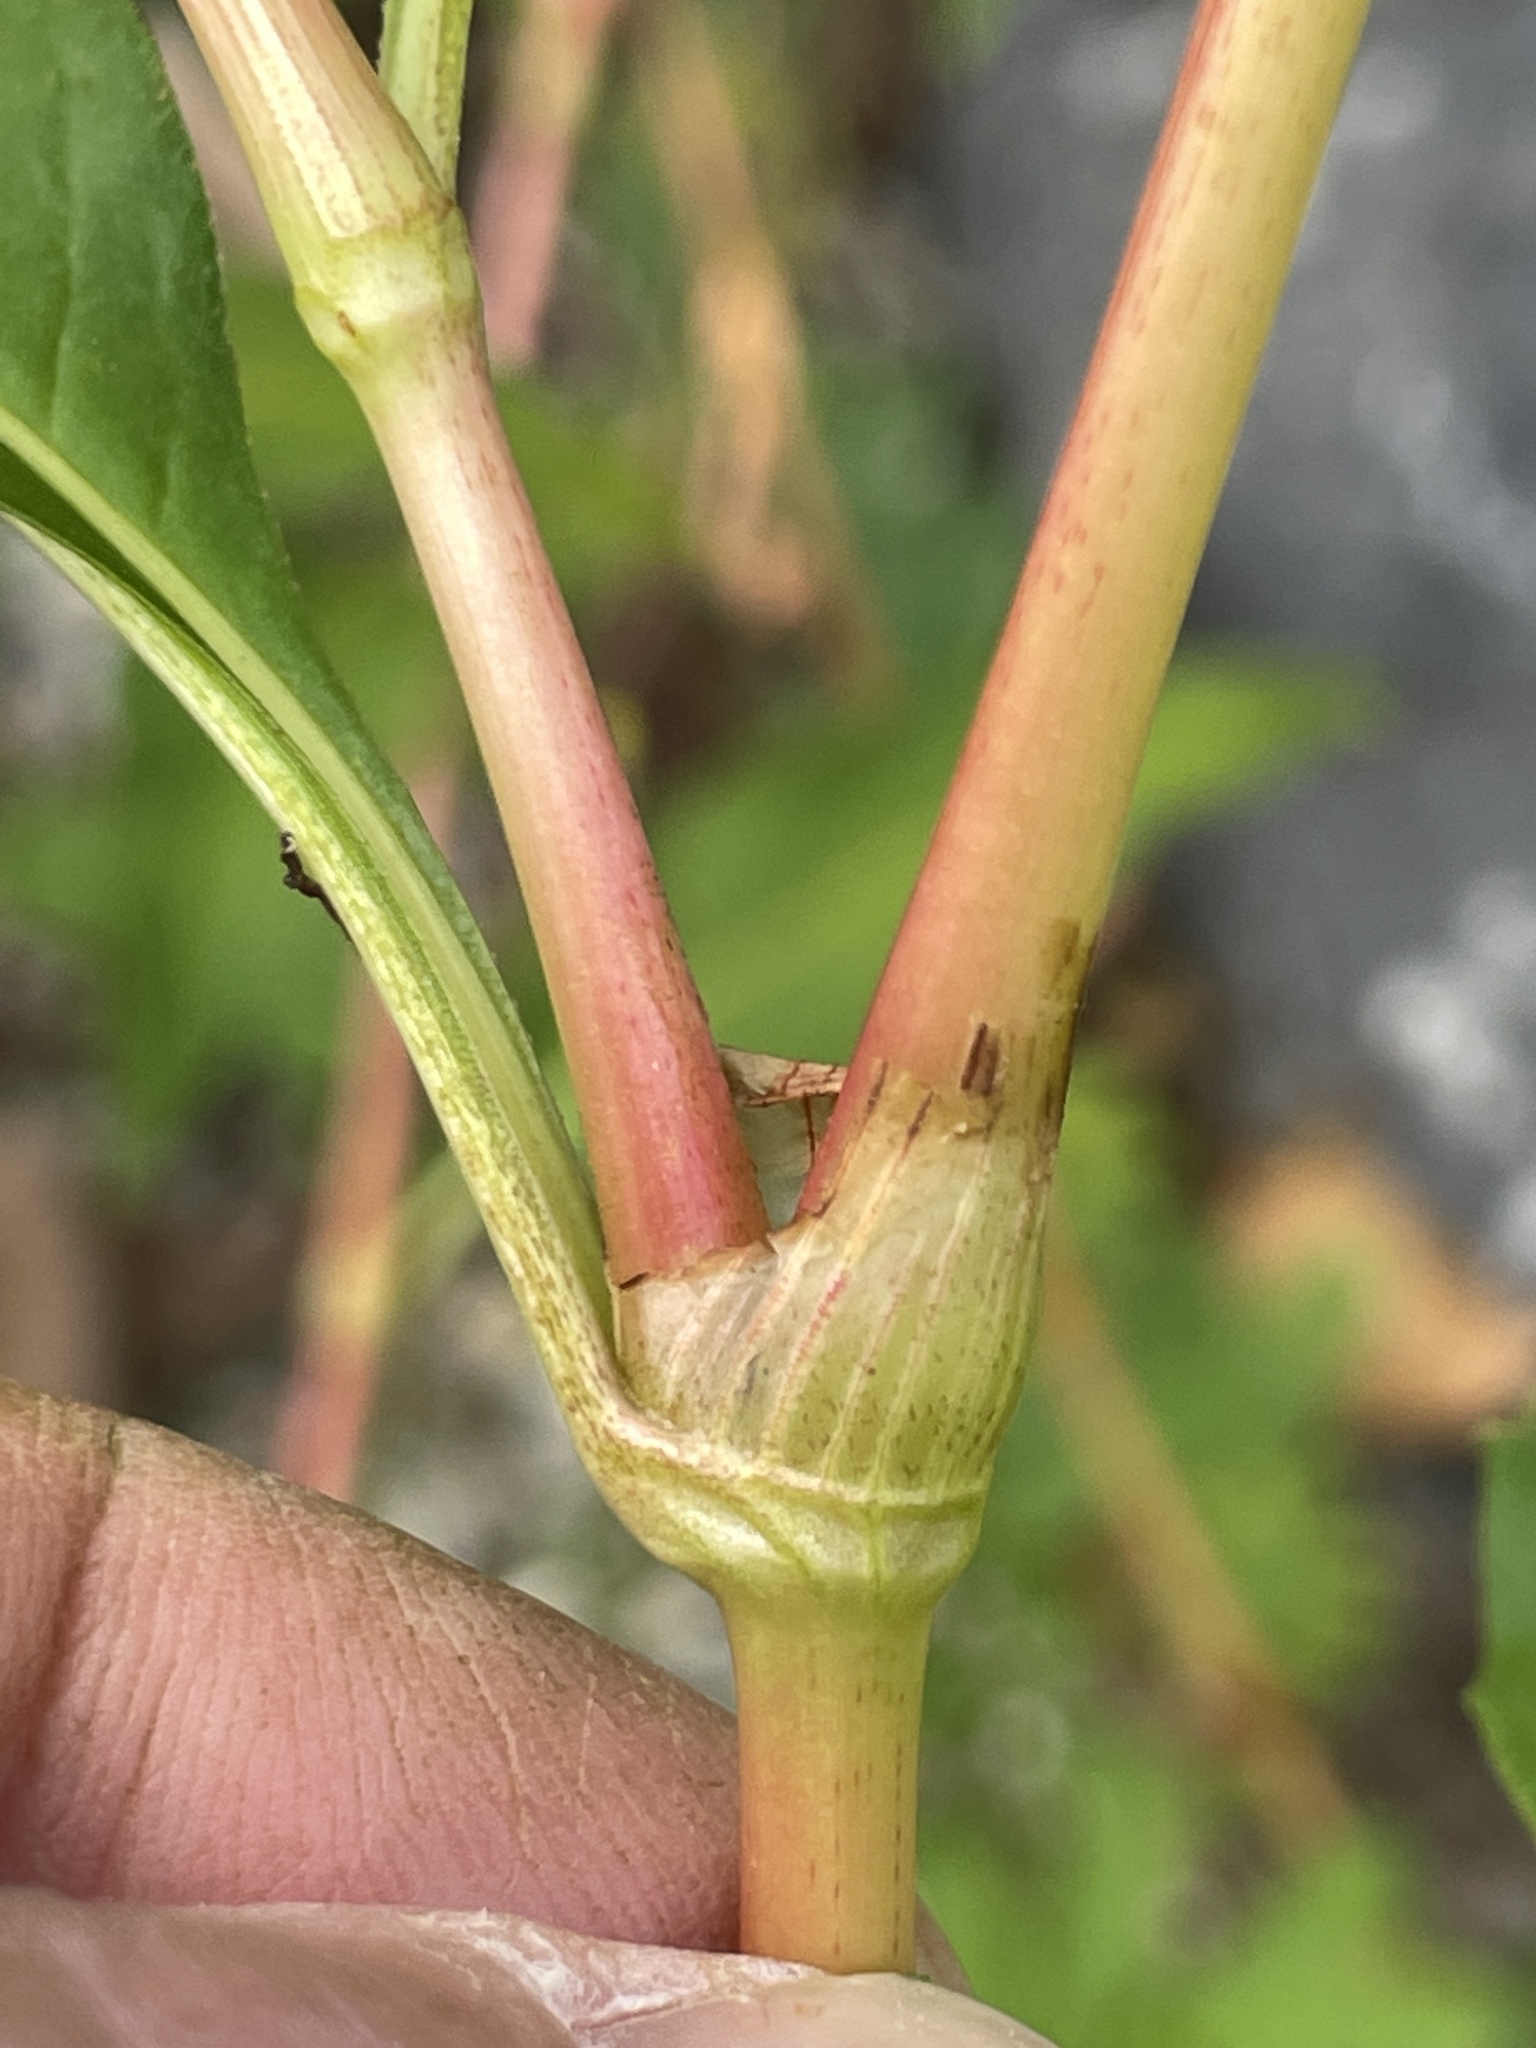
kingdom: Plantae
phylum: Tracheophyta
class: Magnoliopsida
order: Caryophyllales
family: Polygonaceae
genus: Persicaria
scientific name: Persicaria pensylvanica
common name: Pinkweed
